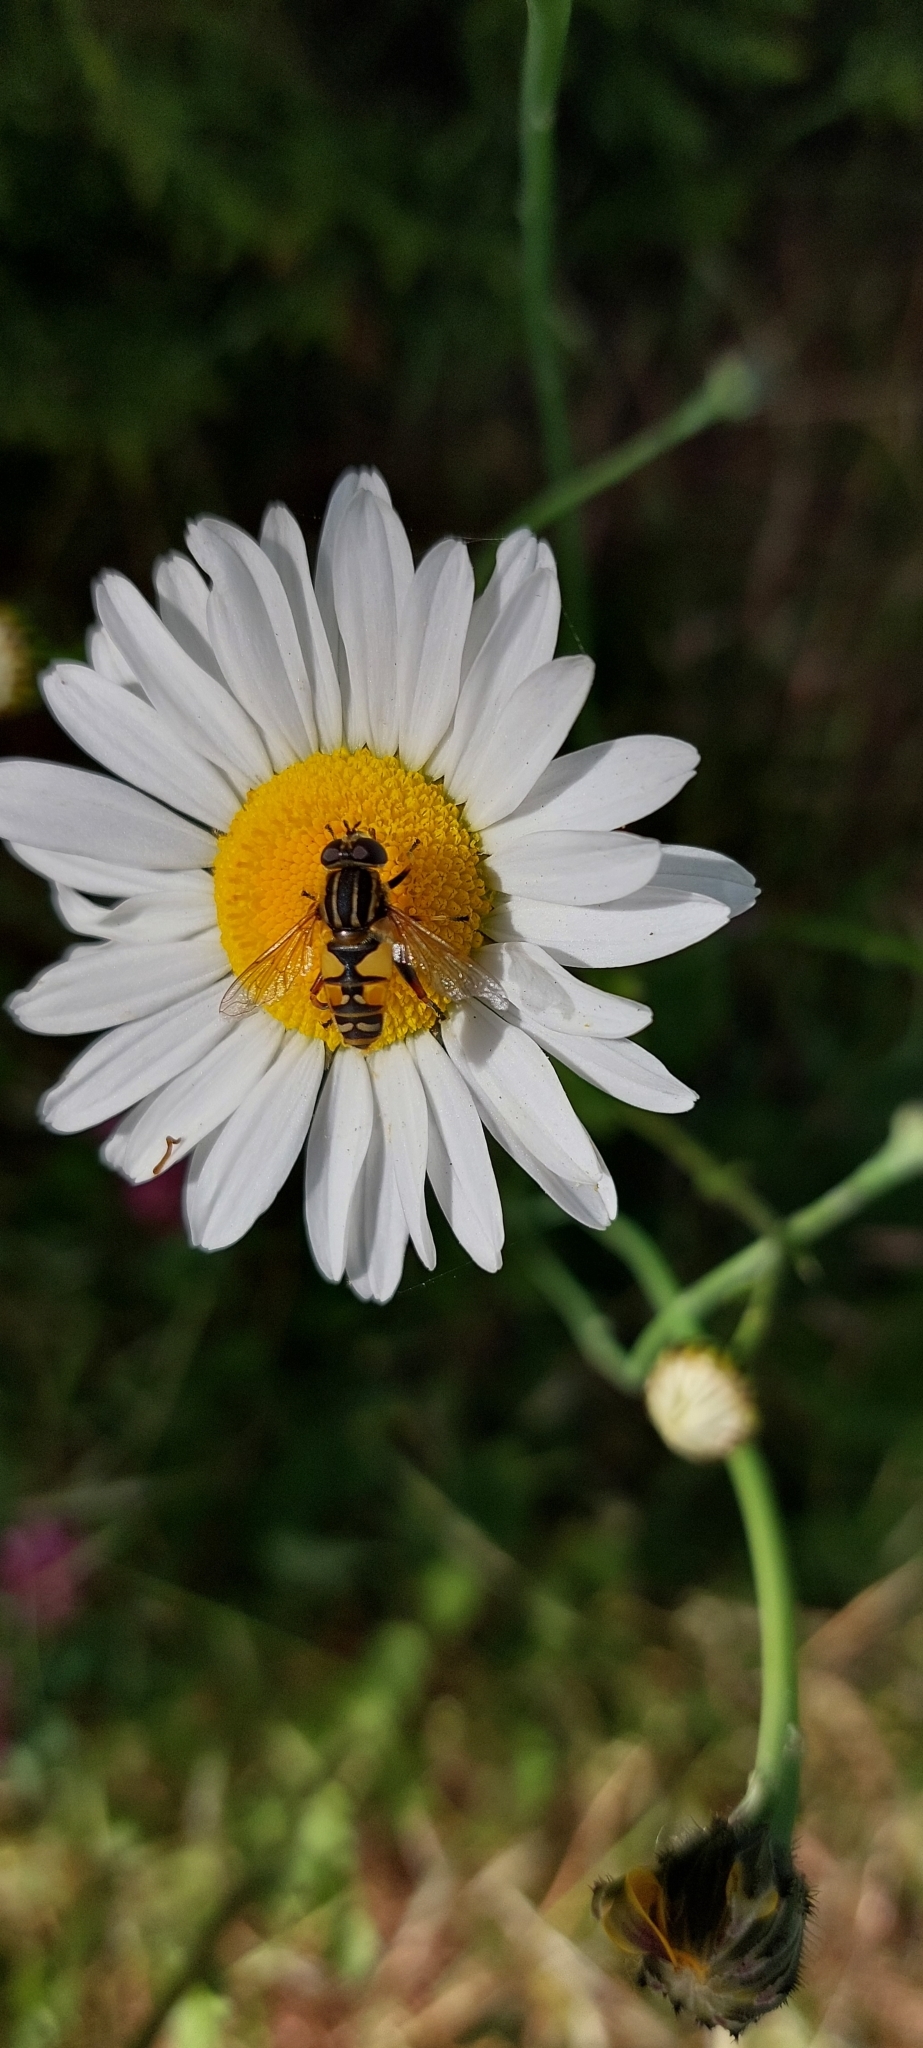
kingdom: Animalia
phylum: Arthropoda
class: Insecta
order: Diptera
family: Syrphidae
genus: Helophilus
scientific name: Helophilus pendulus
